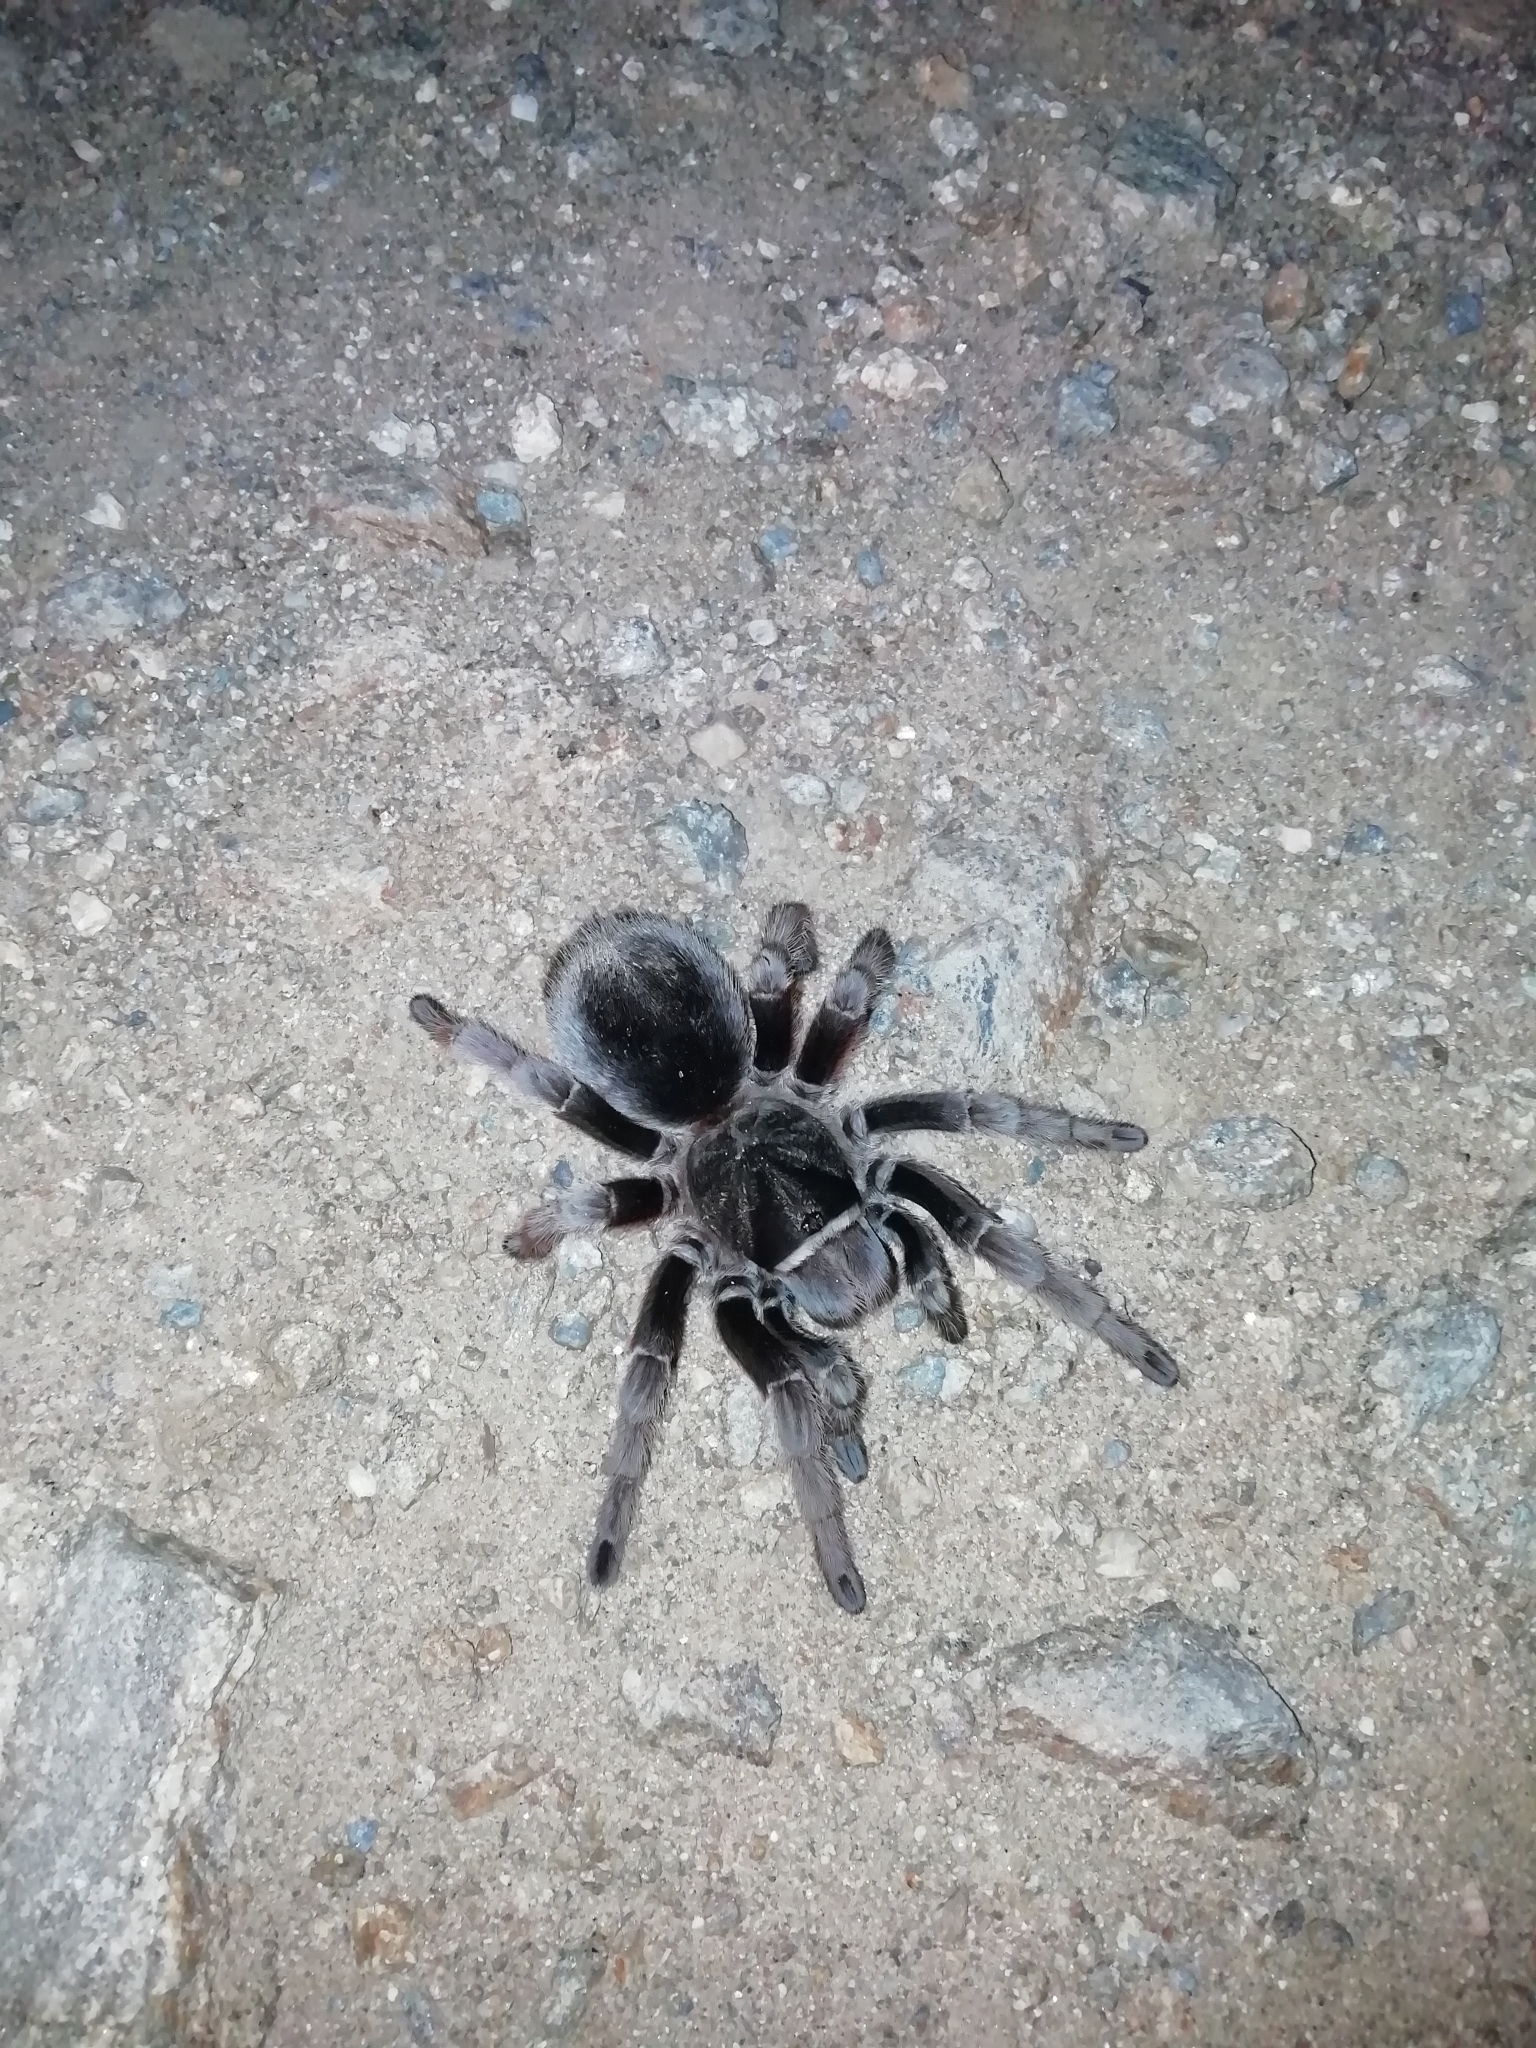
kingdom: Animalia
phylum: Arthropoda
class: Arachnida
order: Araneae
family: Theraphosidae
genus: Grammostola
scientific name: Grammostola anthracina
